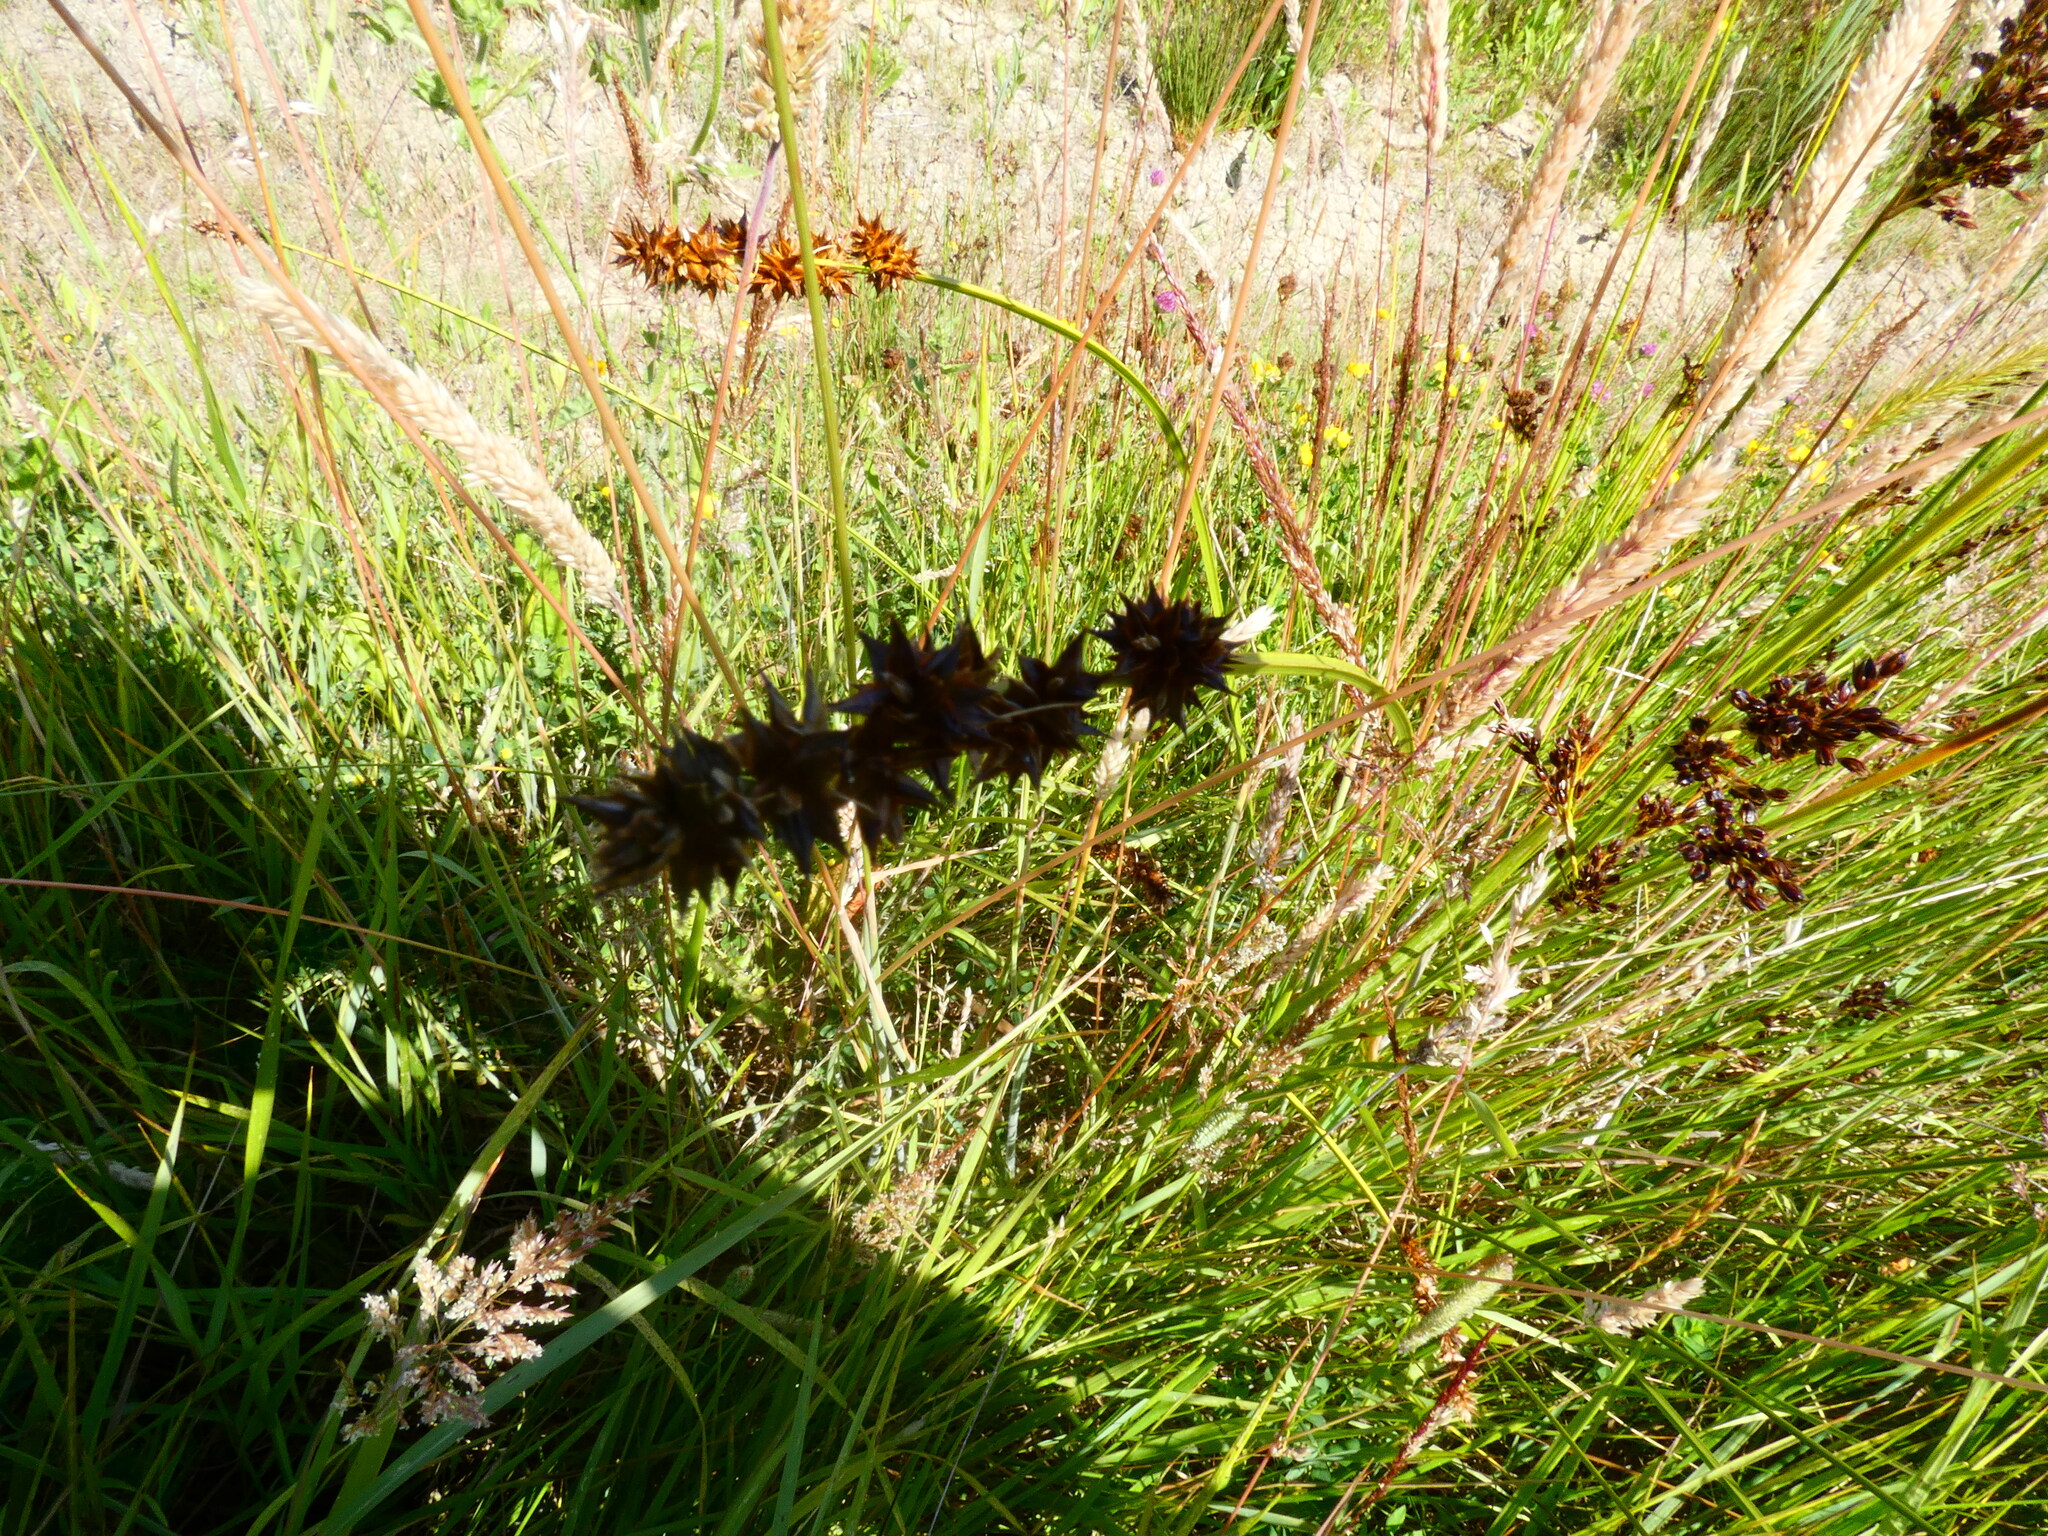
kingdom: Plantae
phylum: Tracheophyta
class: Liliopsida
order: Poales
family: Cyperaceae
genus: Carex
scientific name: Carex otrubae
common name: False fox-sedge
